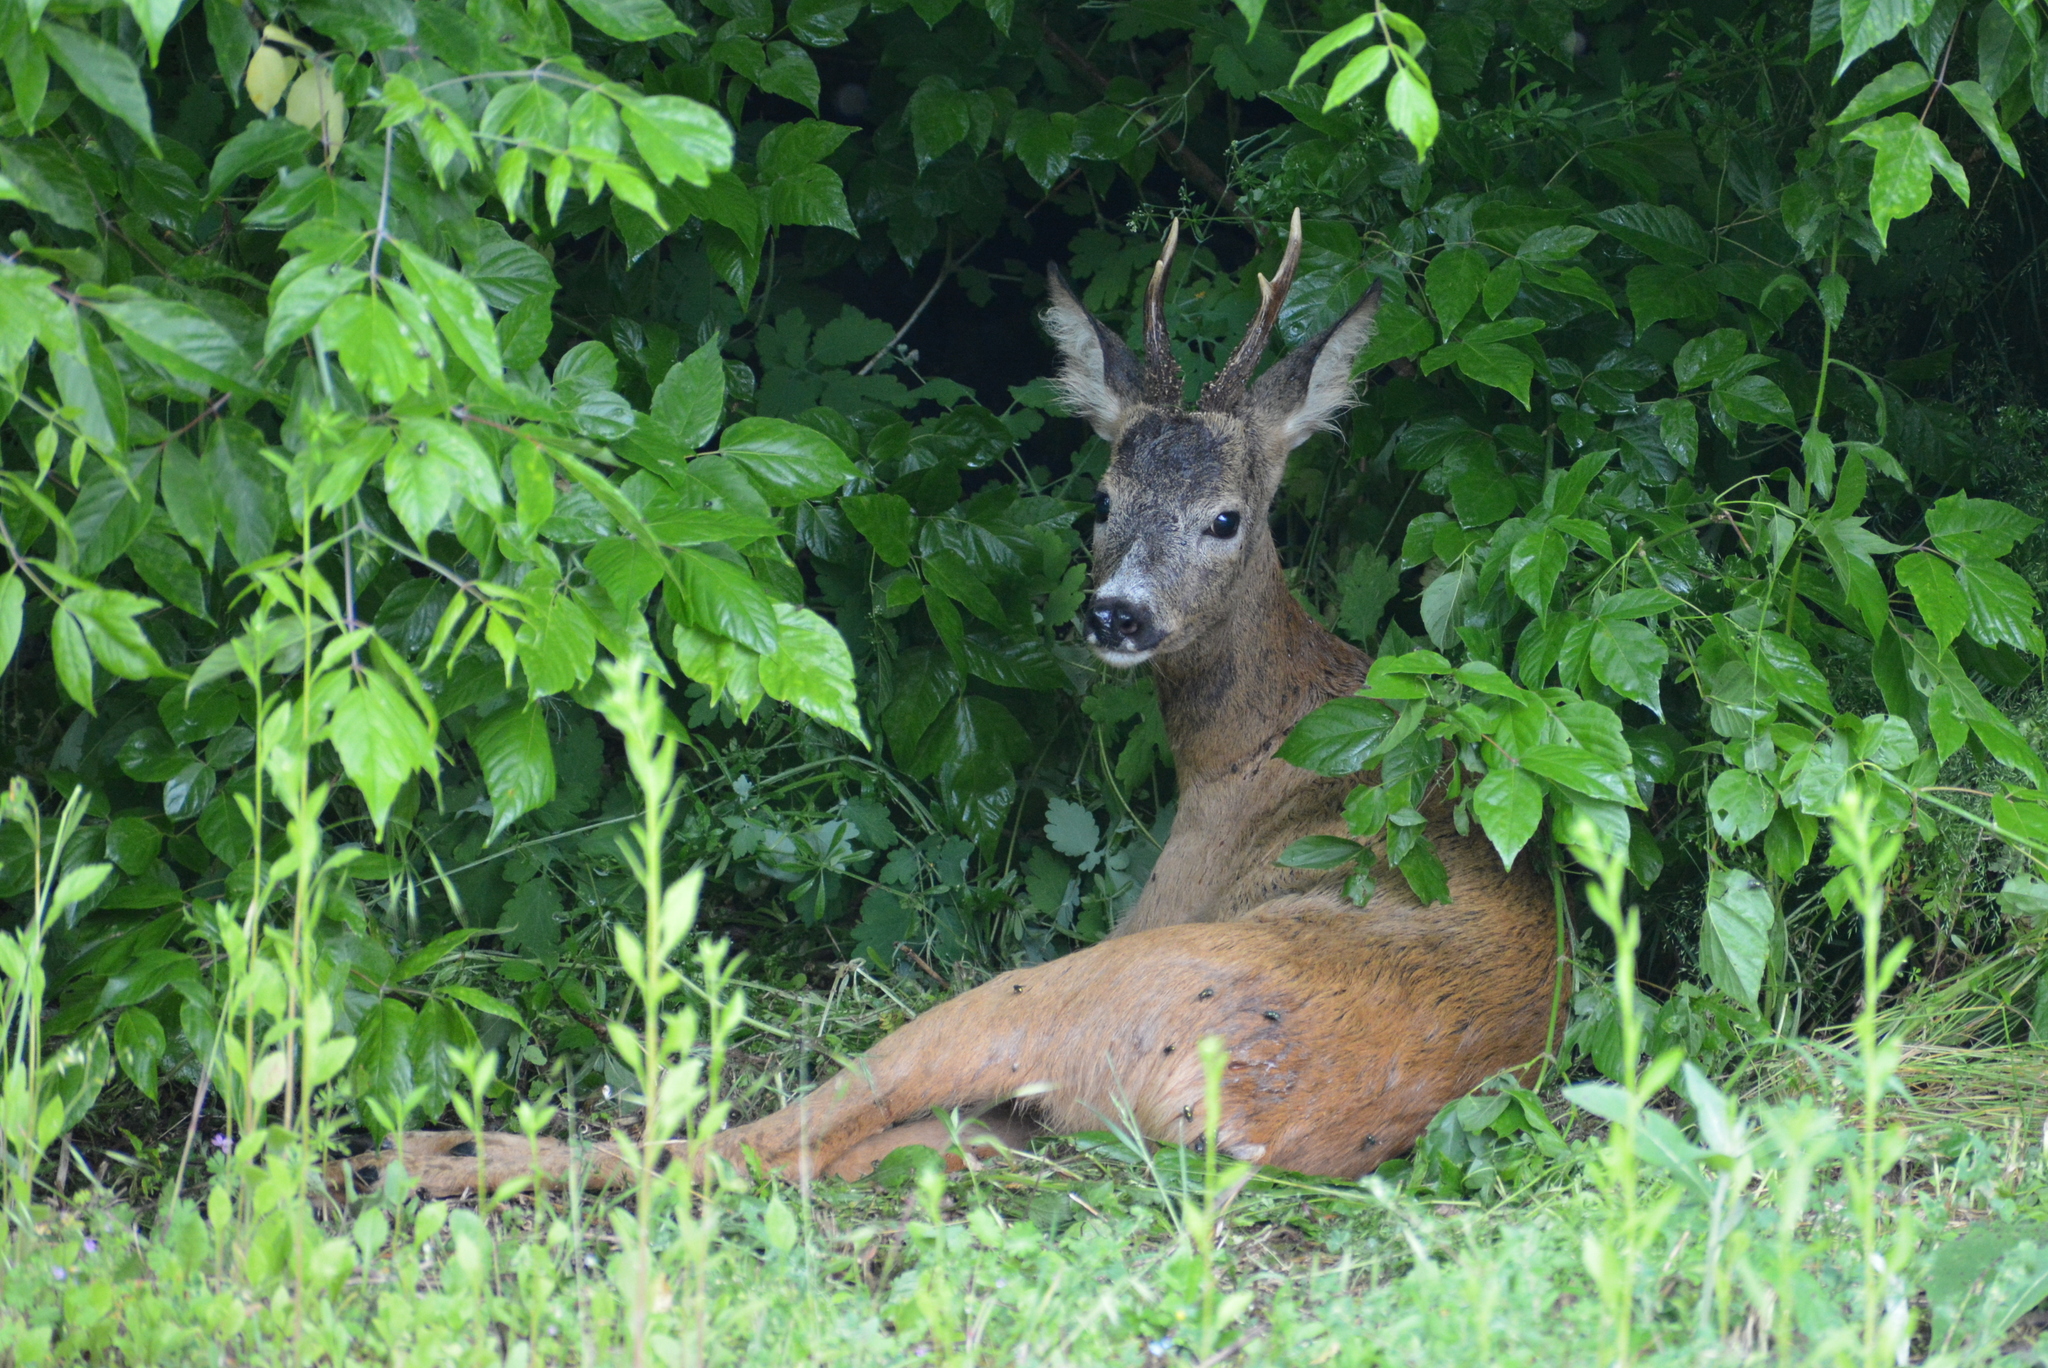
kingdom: Animalia
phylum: Chordata
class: Mammalia
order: Artiodactyla
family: Cervidae
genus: Capreolus
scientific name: Capreolus capreolus
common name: Western roe deer
